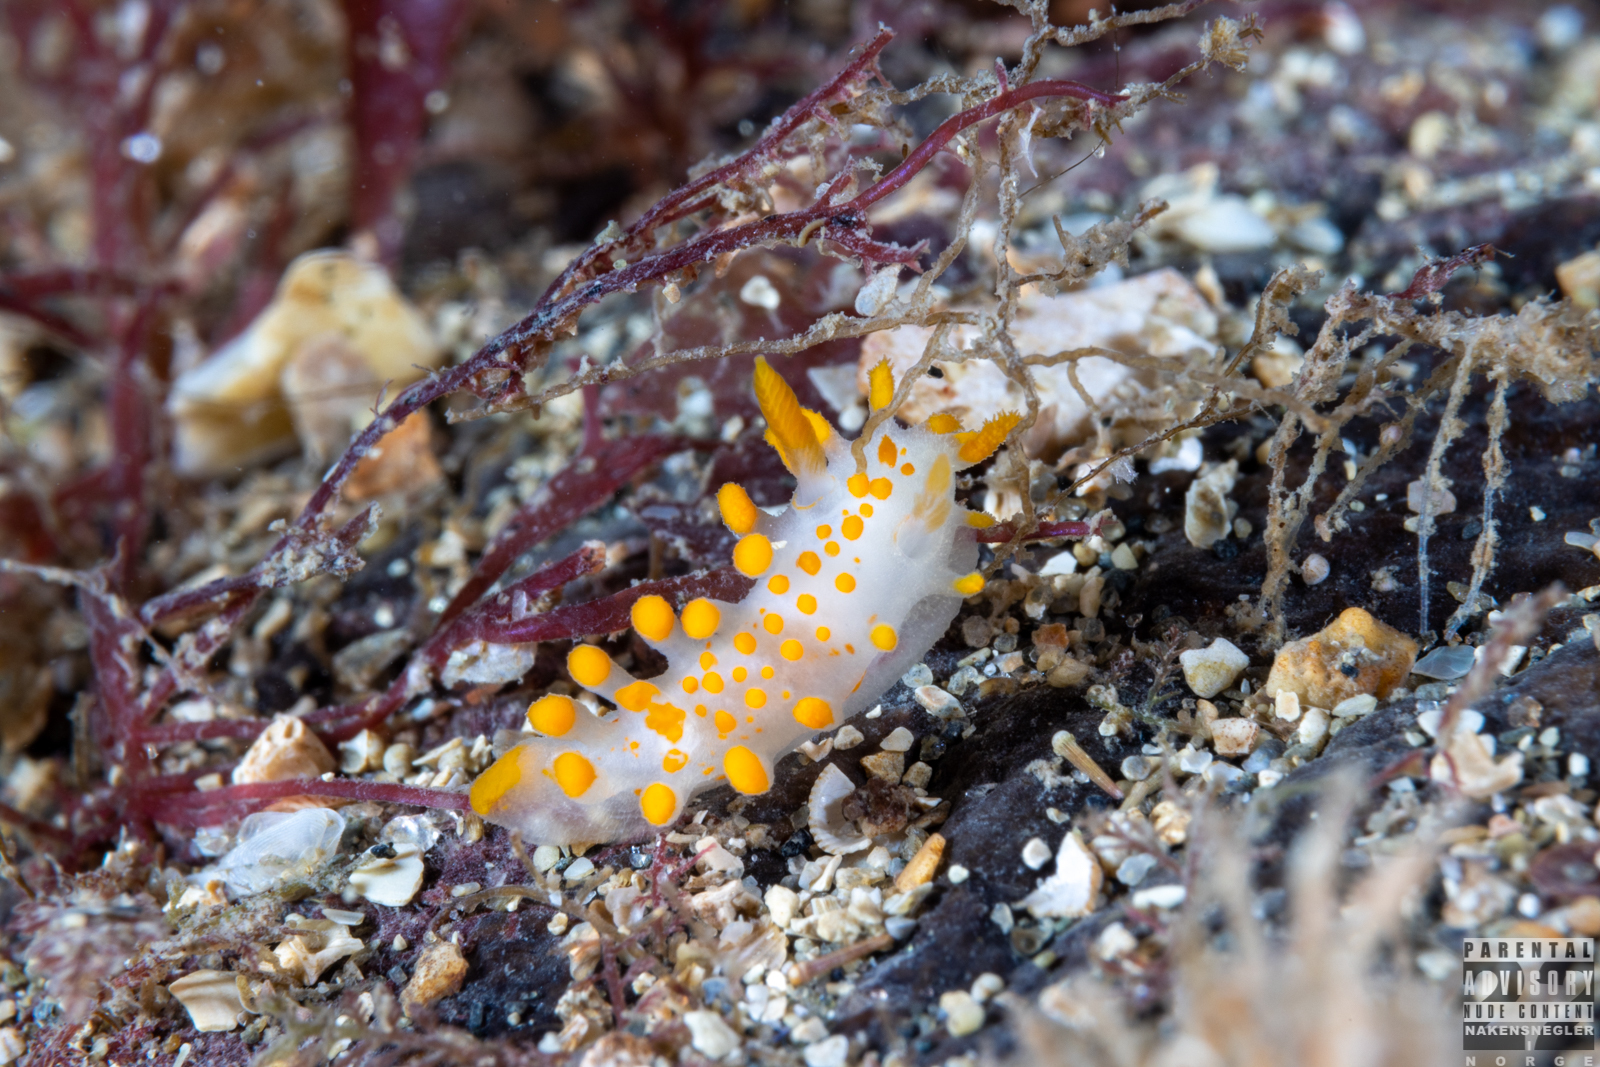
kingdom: Animalia
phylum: Mollusca
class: Gastropoda
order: Nudibranchia
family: Polyceridae
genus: Limacia
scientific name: Limacia clavigera
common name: Orange-clubbed sea slug
